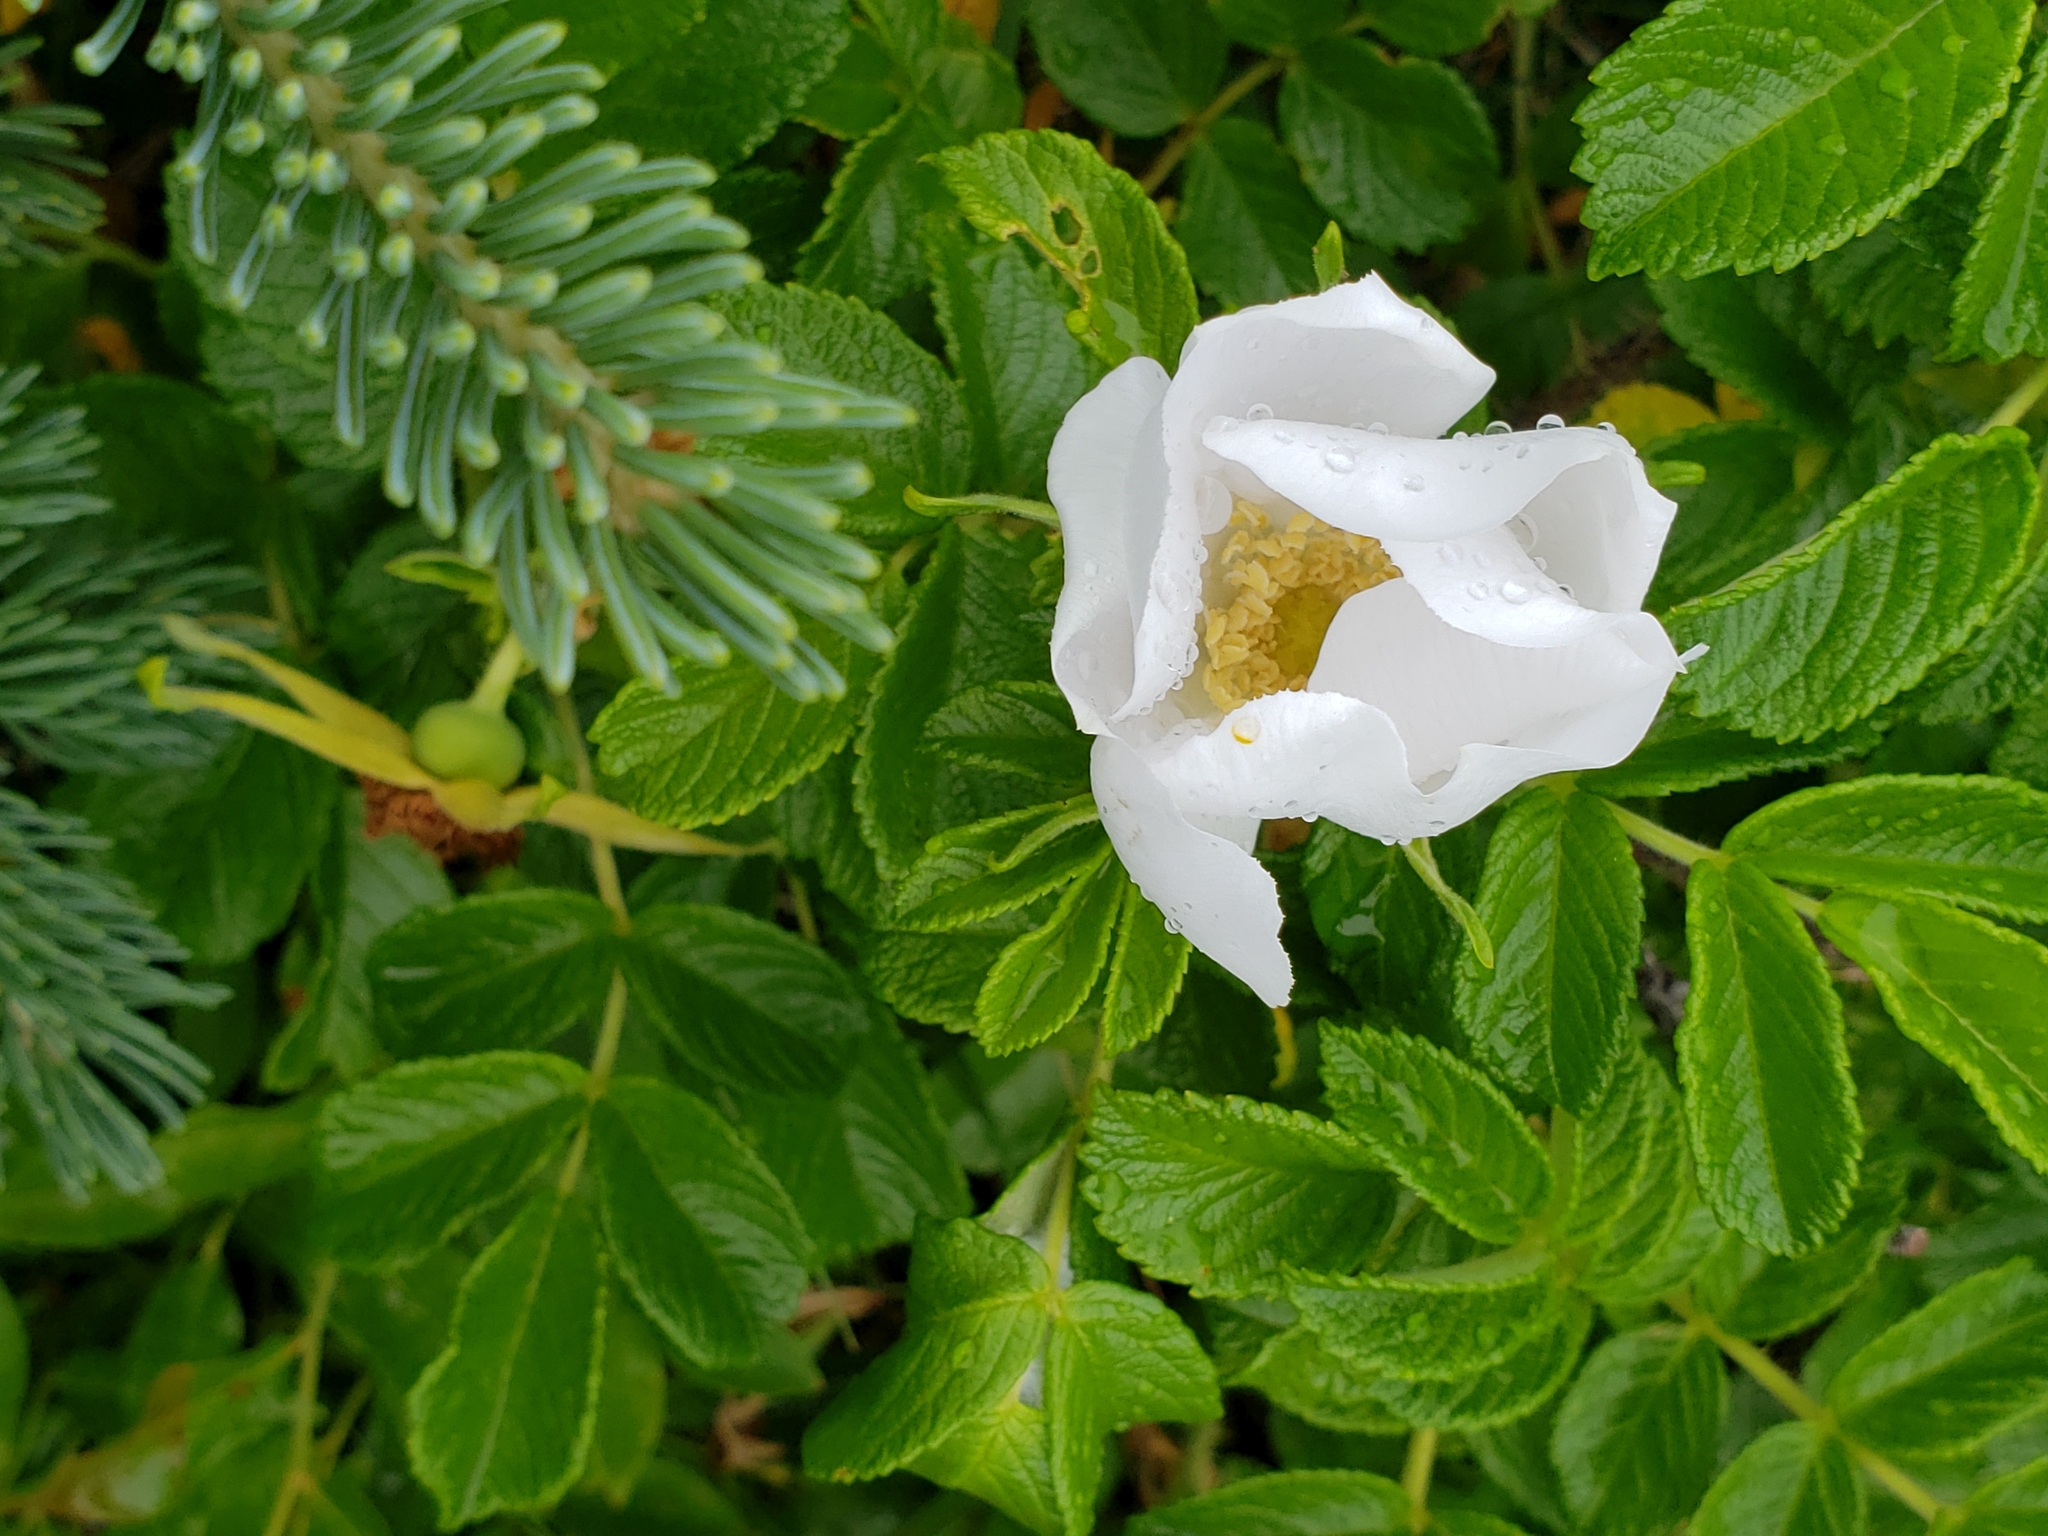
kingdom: Plantae
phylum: Tracheophyta
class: Magnoliopsida
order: Rosales
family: Rosaceae
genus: Rosa
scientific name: Rosa rugosa
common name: Japanese rose
